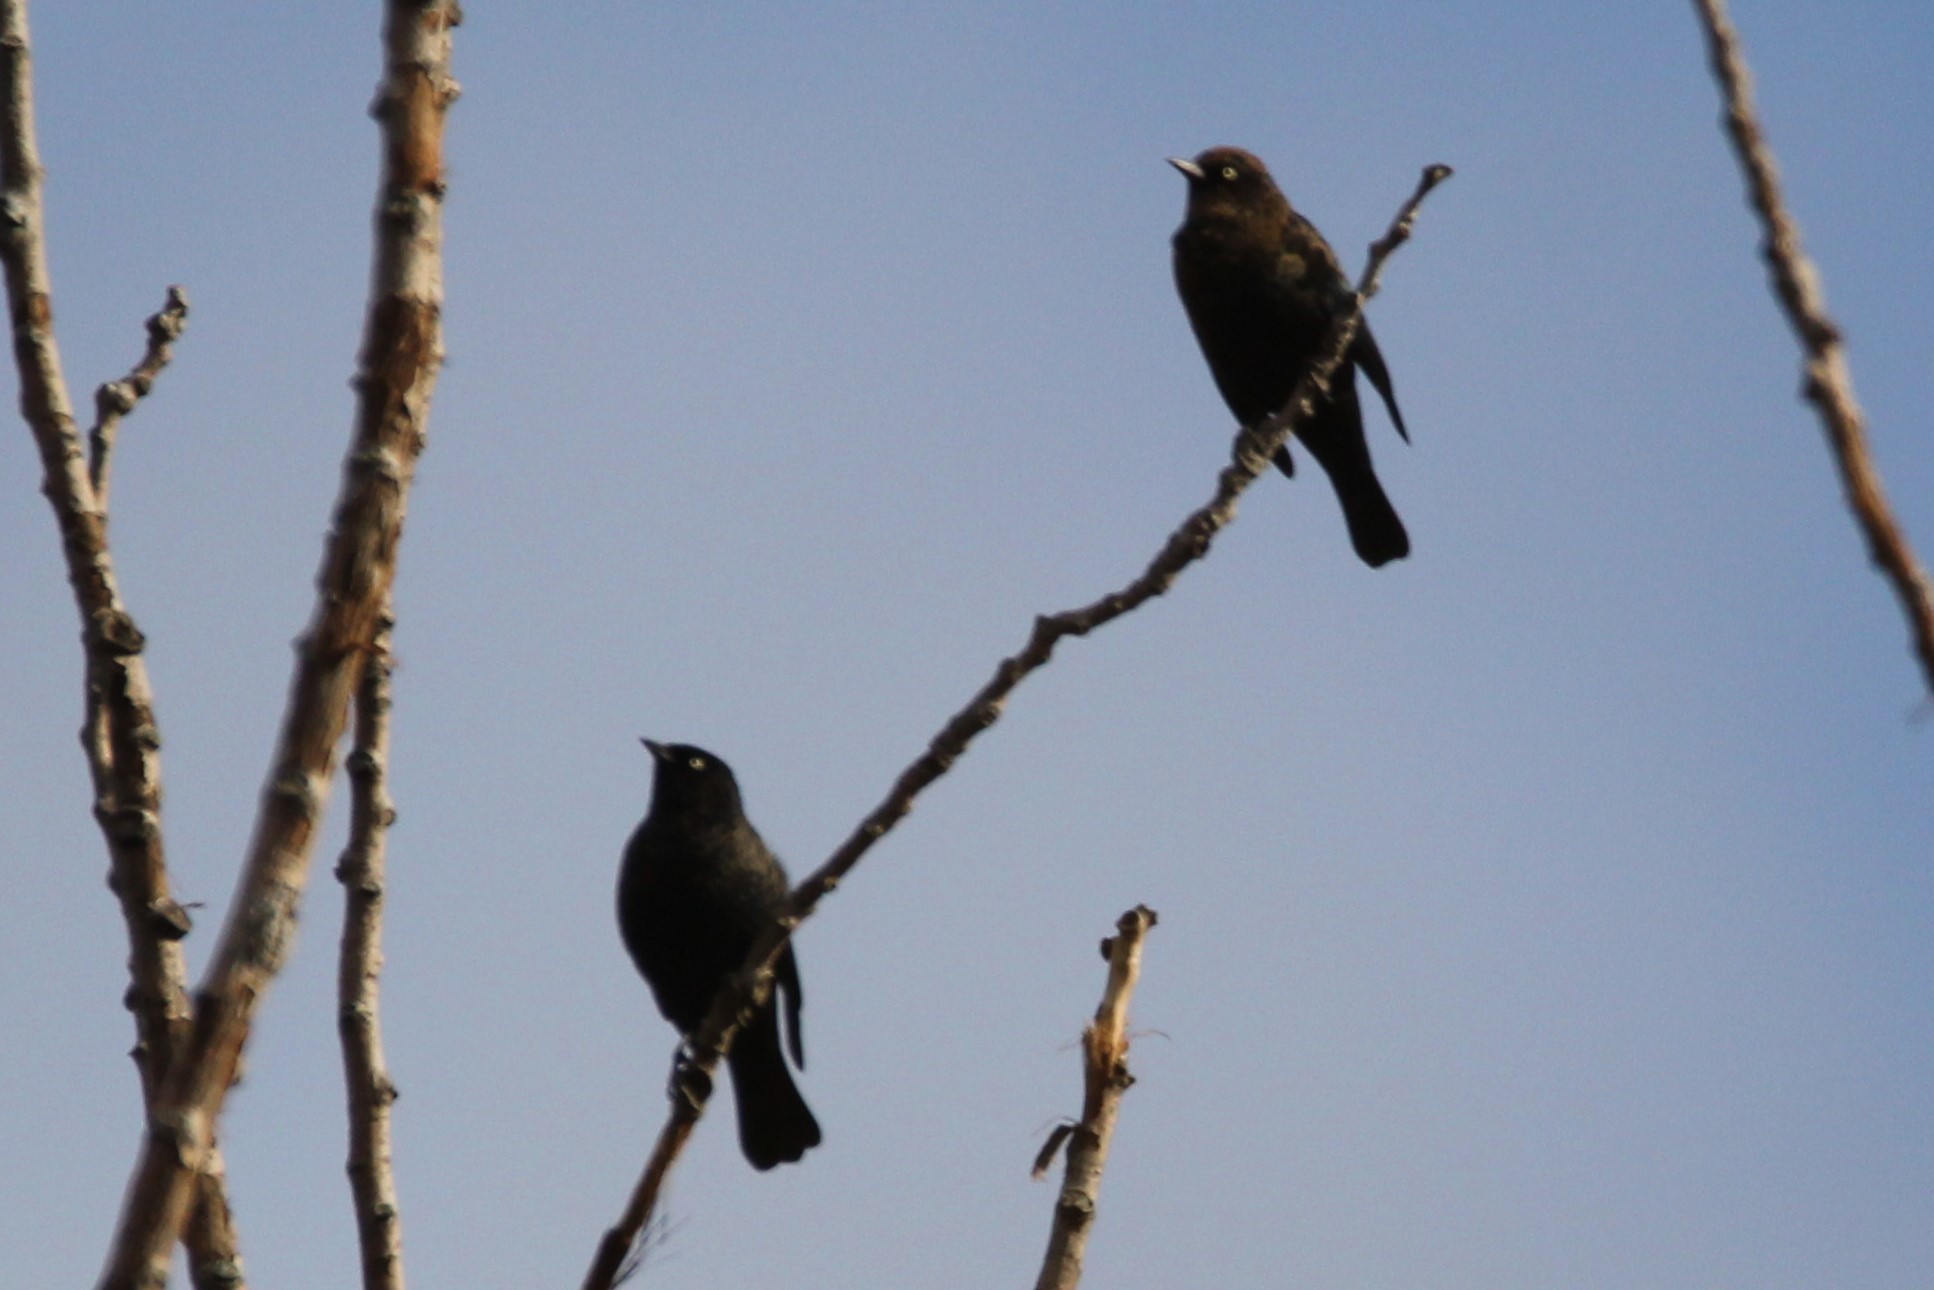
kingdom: Animalia
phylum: Chordata
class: Aves
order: Passeriformes
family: Icteridae
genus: Euphagus
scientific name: Euphagus carolinus
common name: Rusty blackbird
